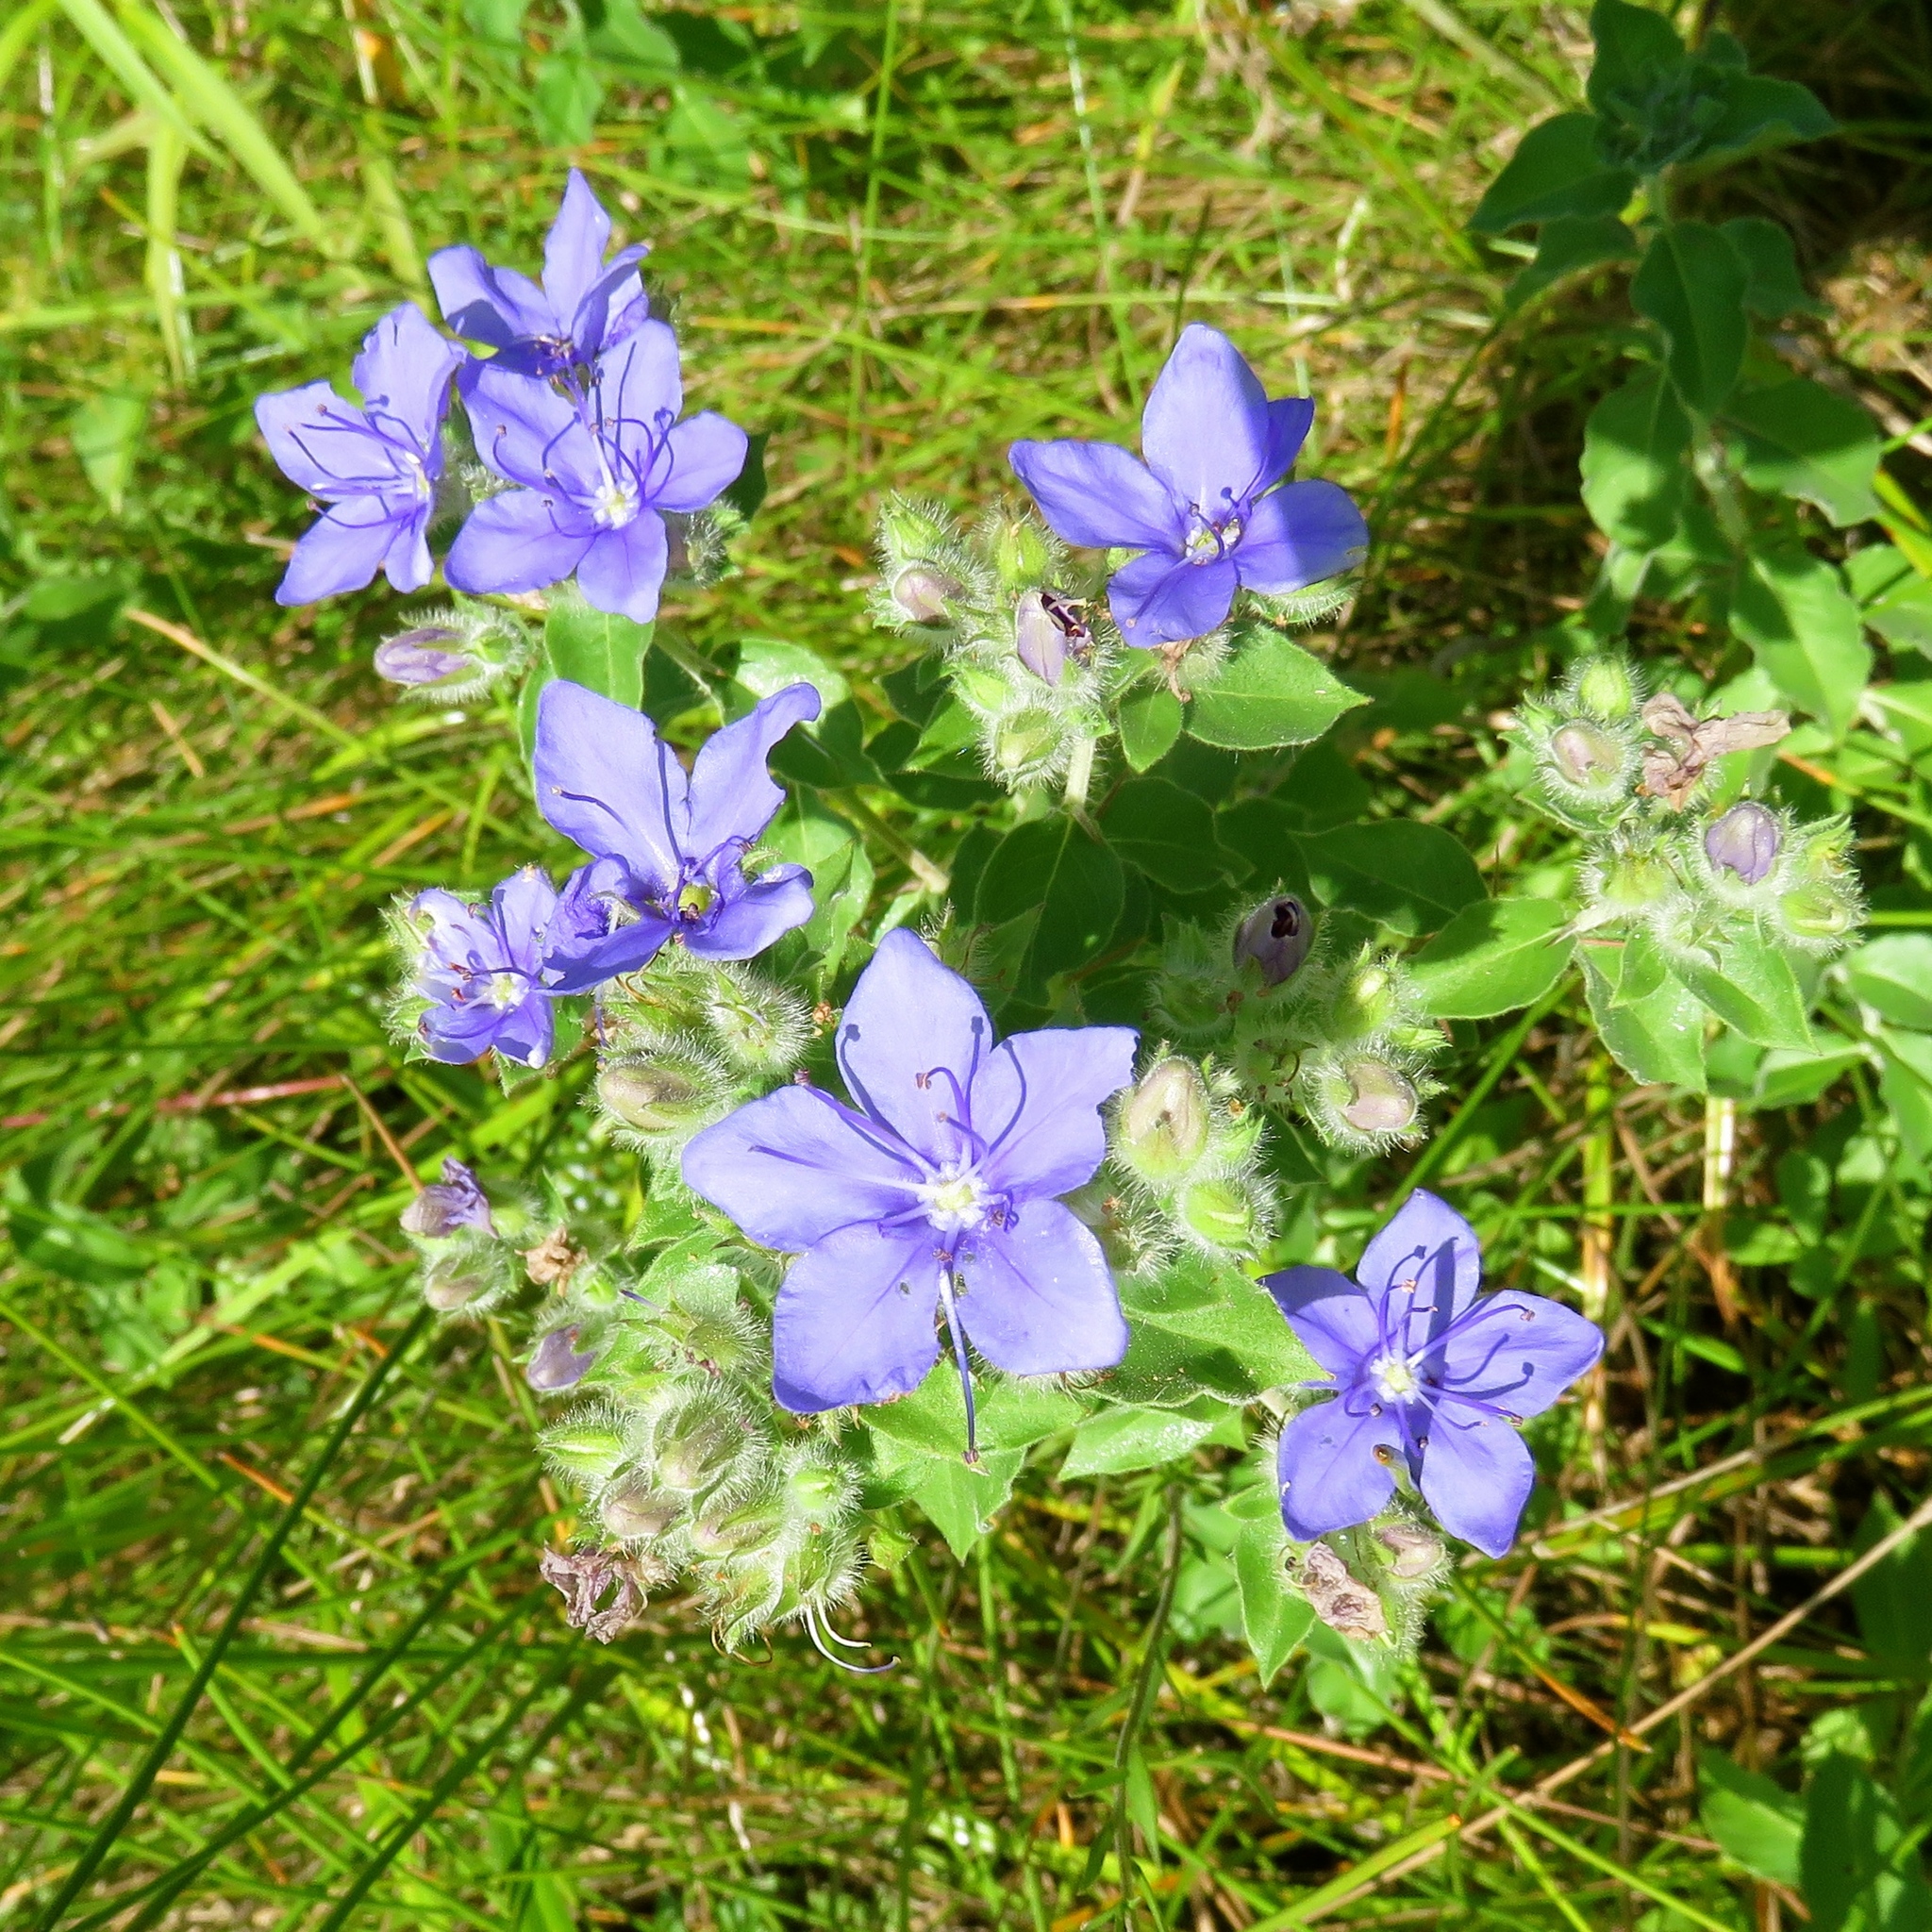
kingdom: Plantae
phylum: Tracheophyta
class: Magnoliopsida
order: Solanales
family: Hydroleaceae
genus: Hydrolea
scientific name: Hydrolea ovata
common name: Ovate false fiddleleaf
